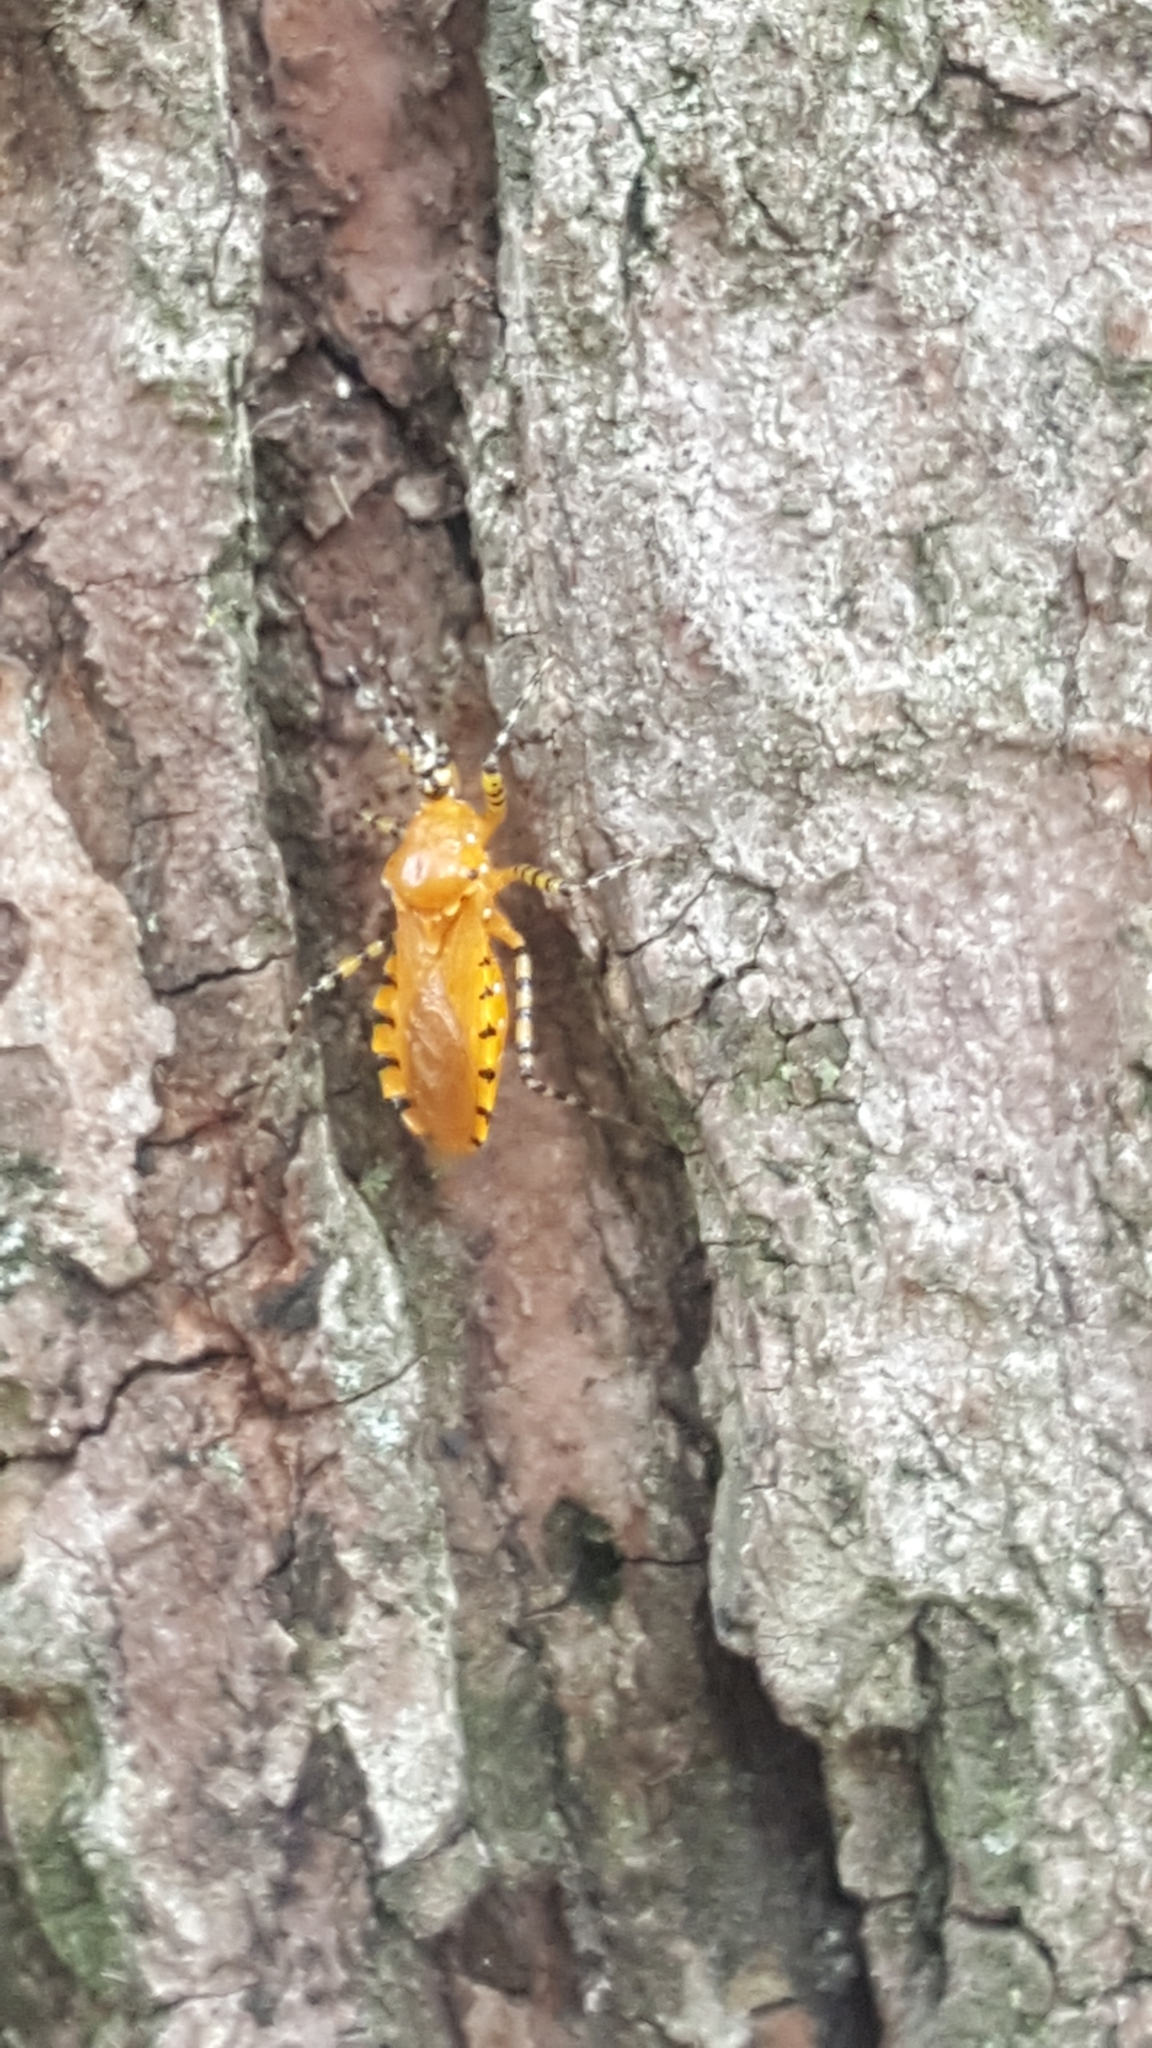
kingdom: Animalia
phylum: Arthropoda
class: Insecta
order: Hemiptera
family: Reduviidae
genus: Pselliopus
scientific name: Pselliopus barberi
